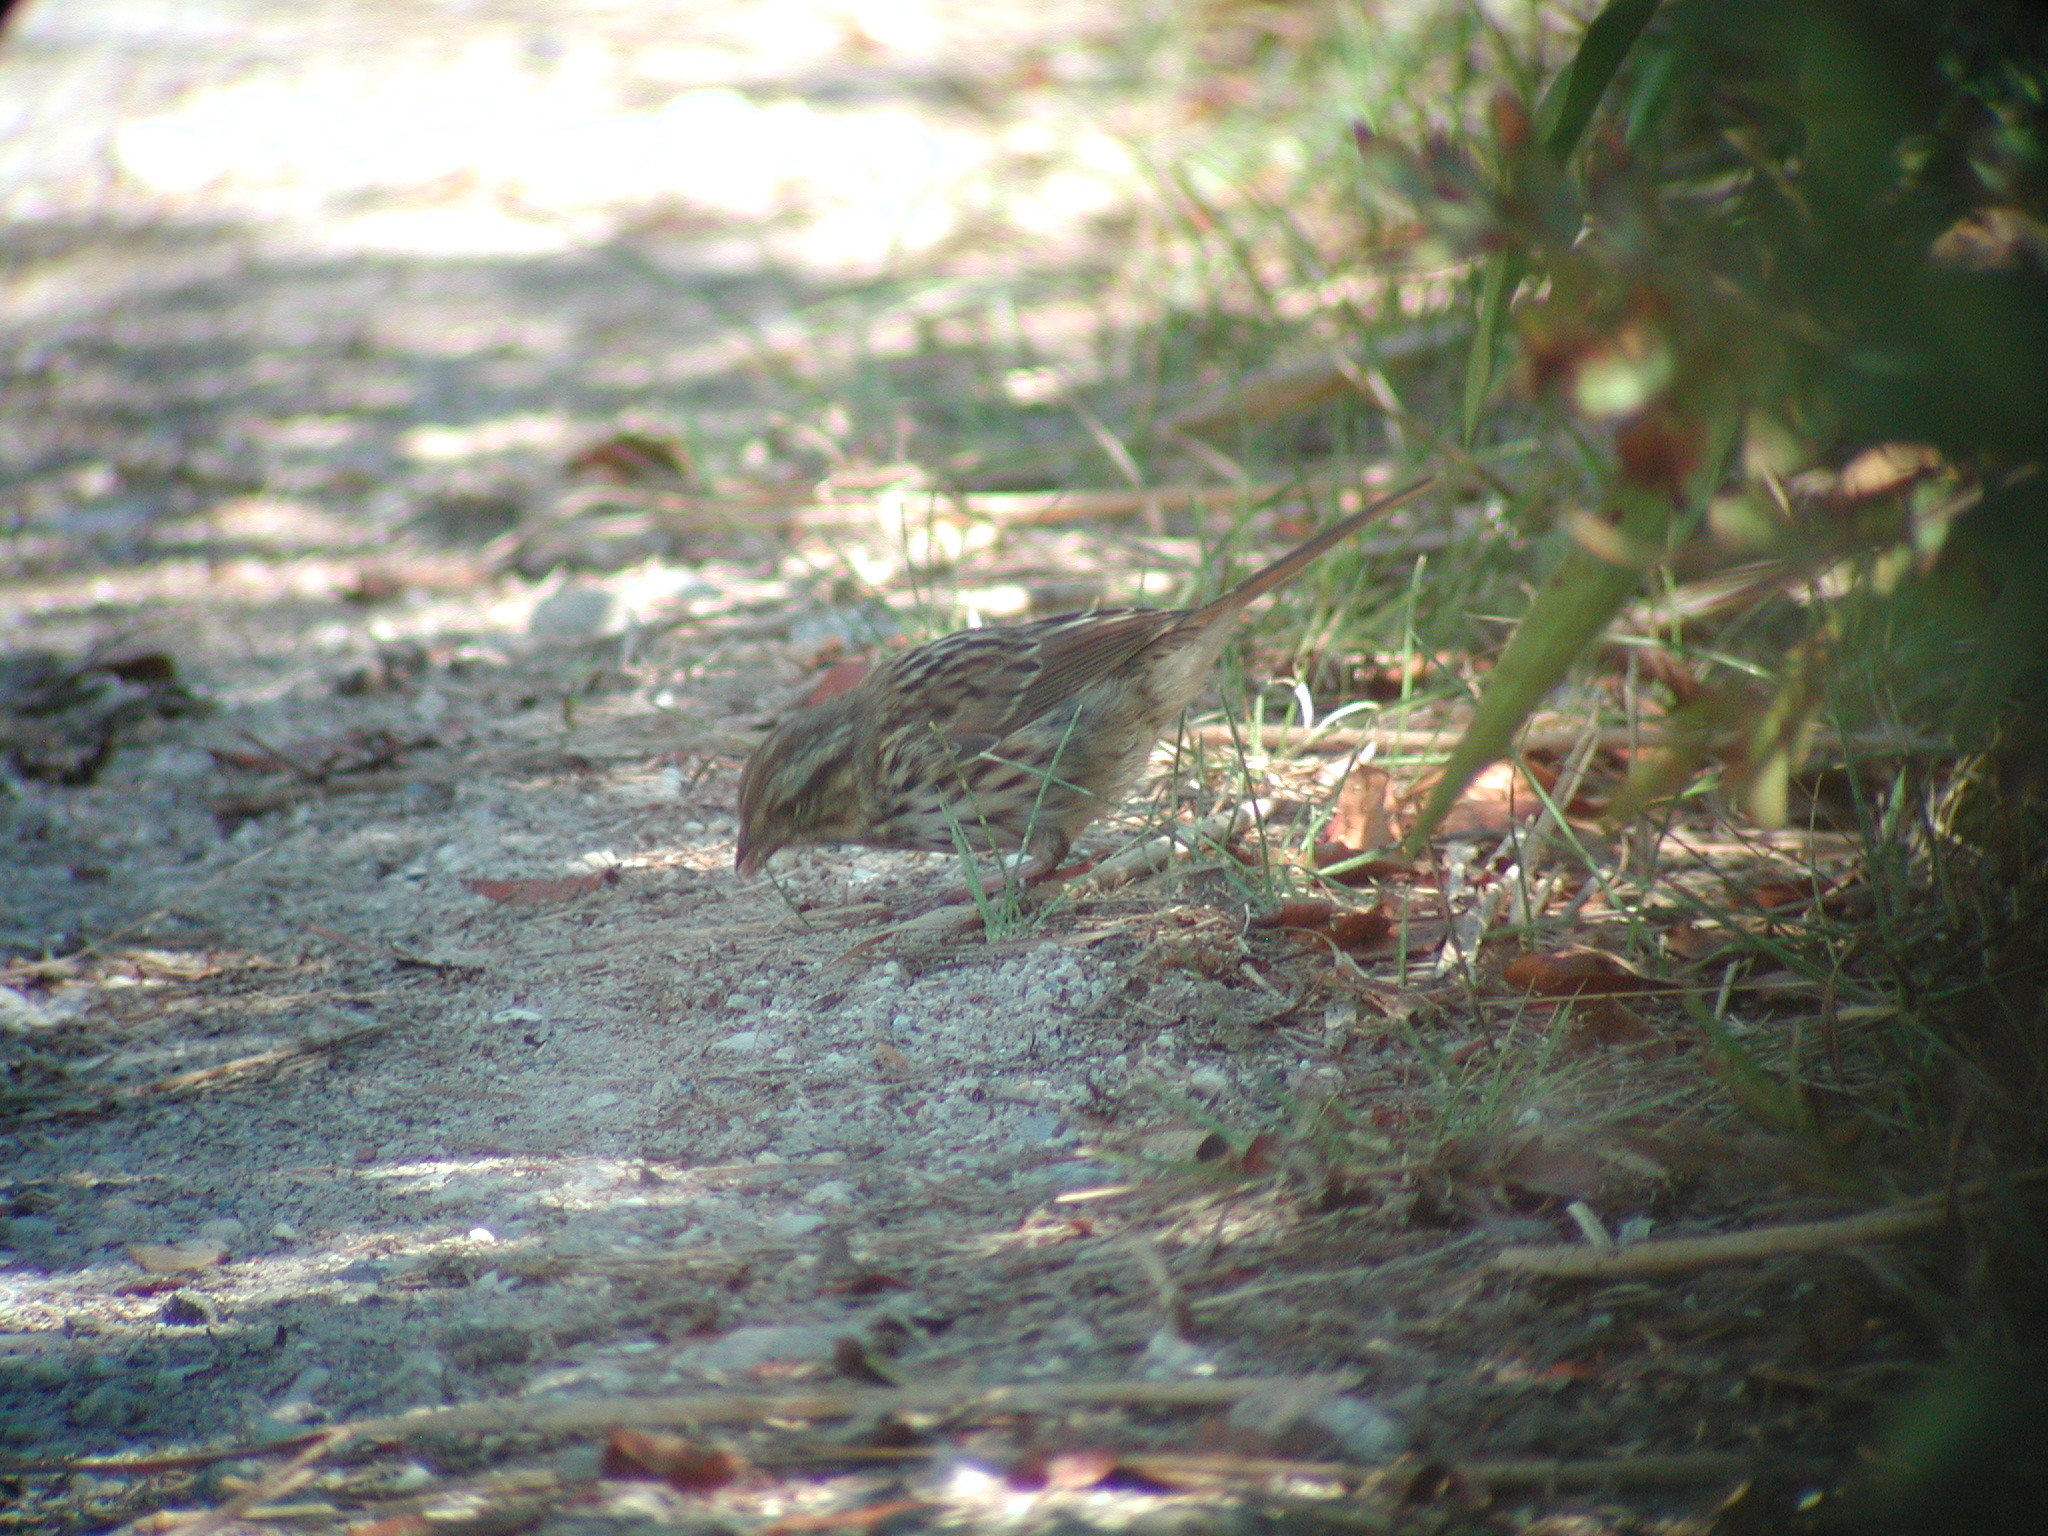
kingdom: Animalia
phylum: Chordata
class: Aves
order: Passeriformes
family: Passerellidae
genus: Melospiza
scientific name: Melospiza melodia
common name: Song sparrow
